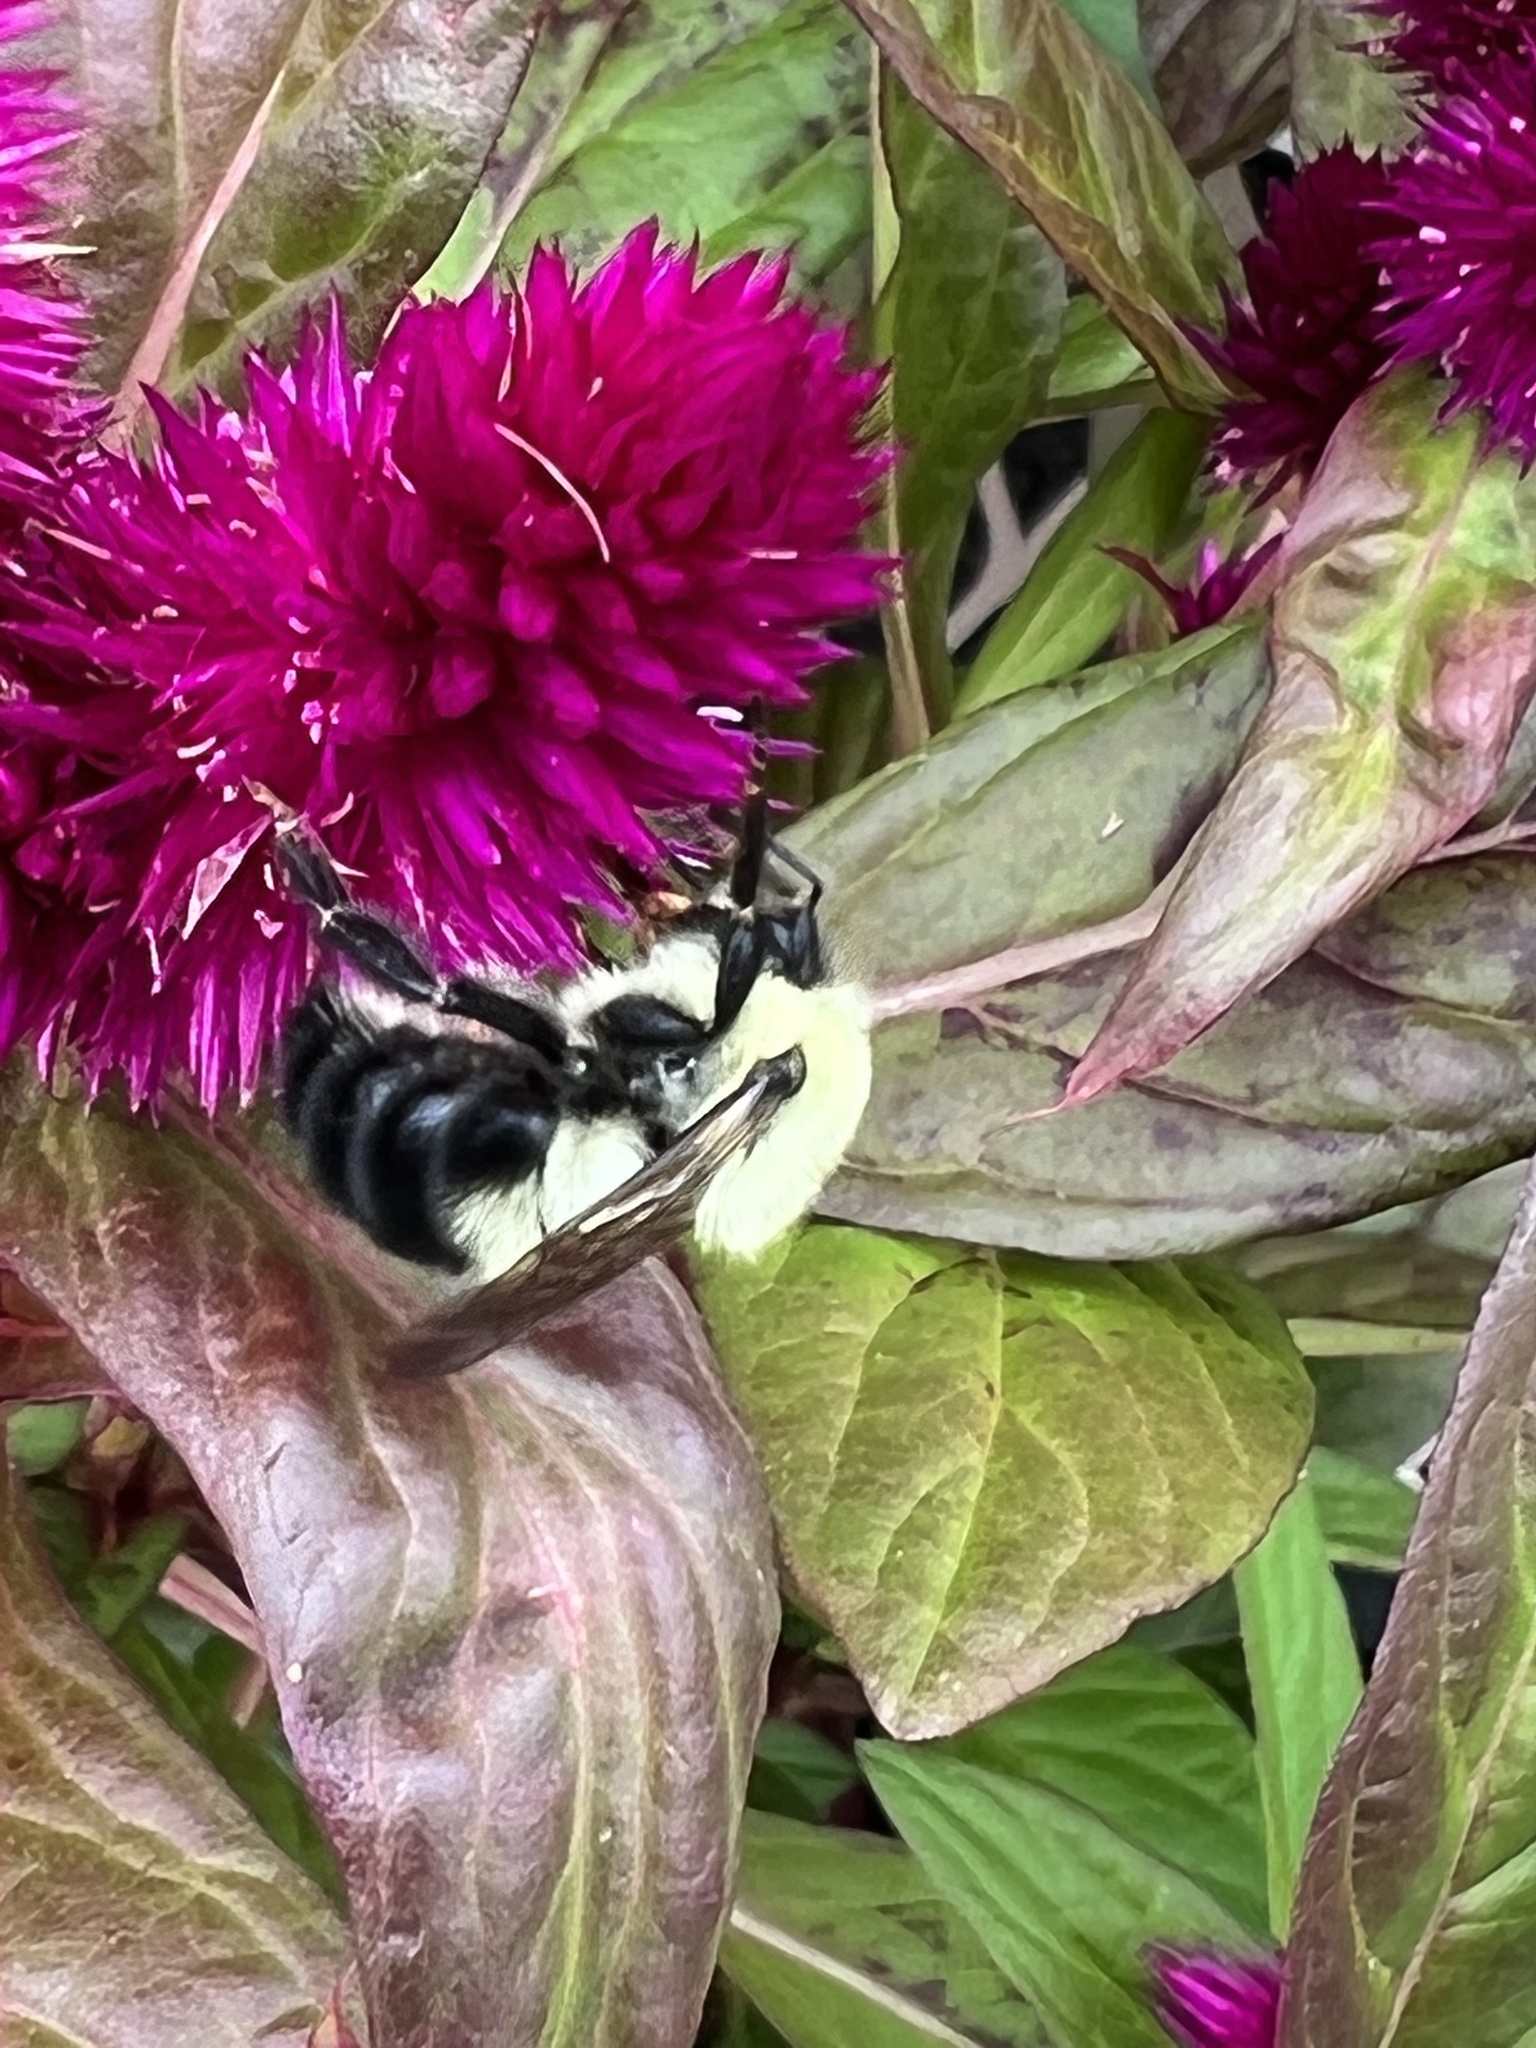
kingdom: Animalia
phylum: Arthropoda
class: Insecta
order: Hymenoptera
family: Apidae
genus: Bombus
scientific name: Bombus bimaculatus
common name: Two-spotted bumble bee
